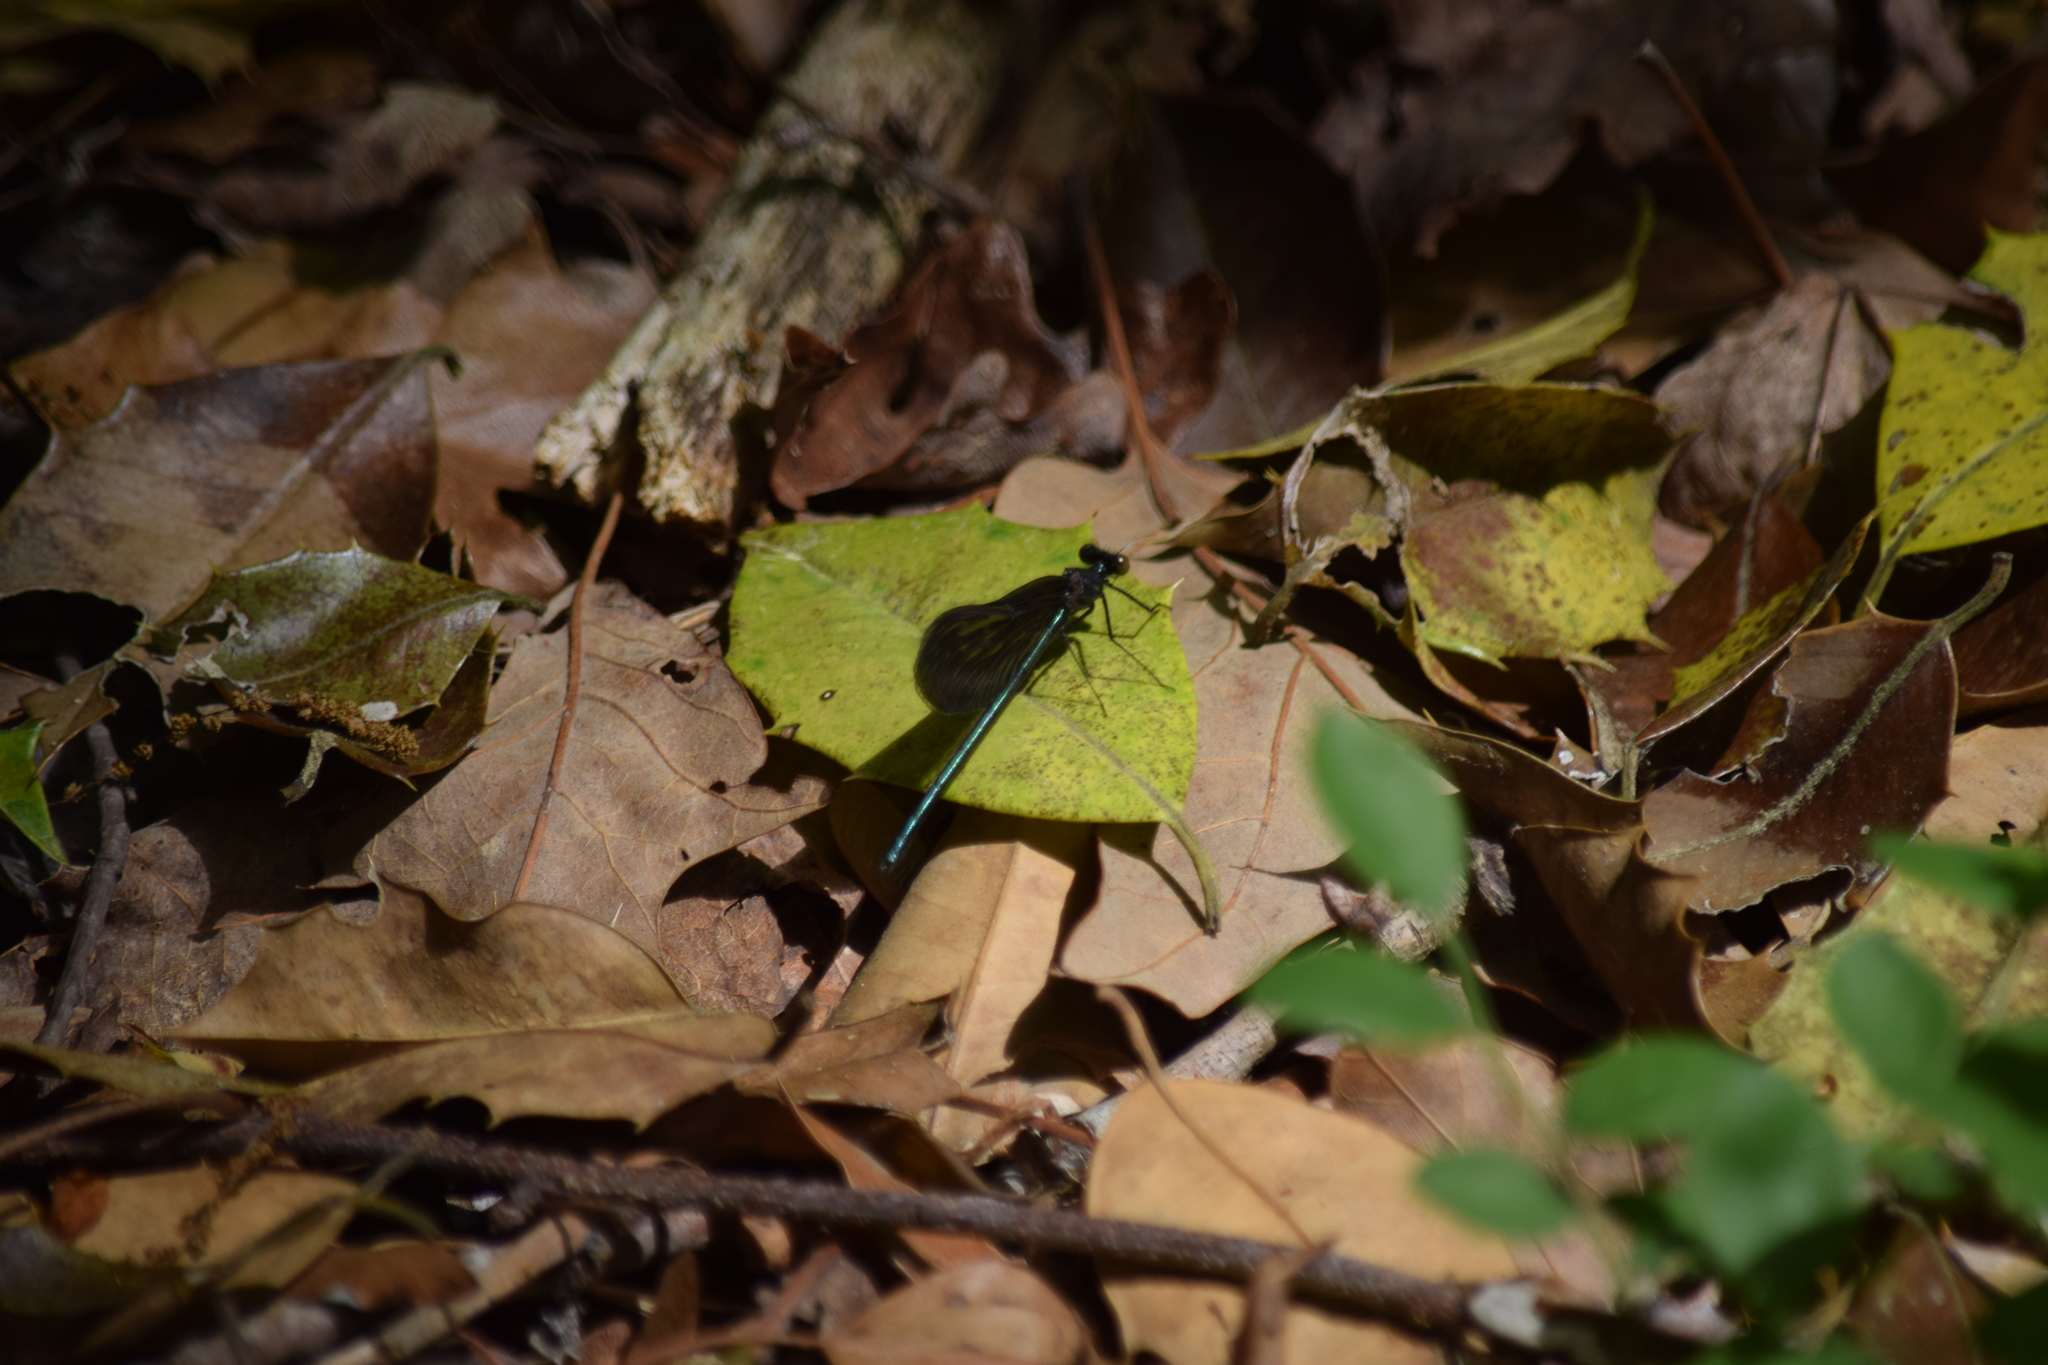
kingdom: Animalia
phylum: Arthropoda
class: Insecta
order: Odonata
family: Calopterygidae
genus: Calopteryx
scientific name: Calopteryx maculata
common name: Ebony jewelwing
